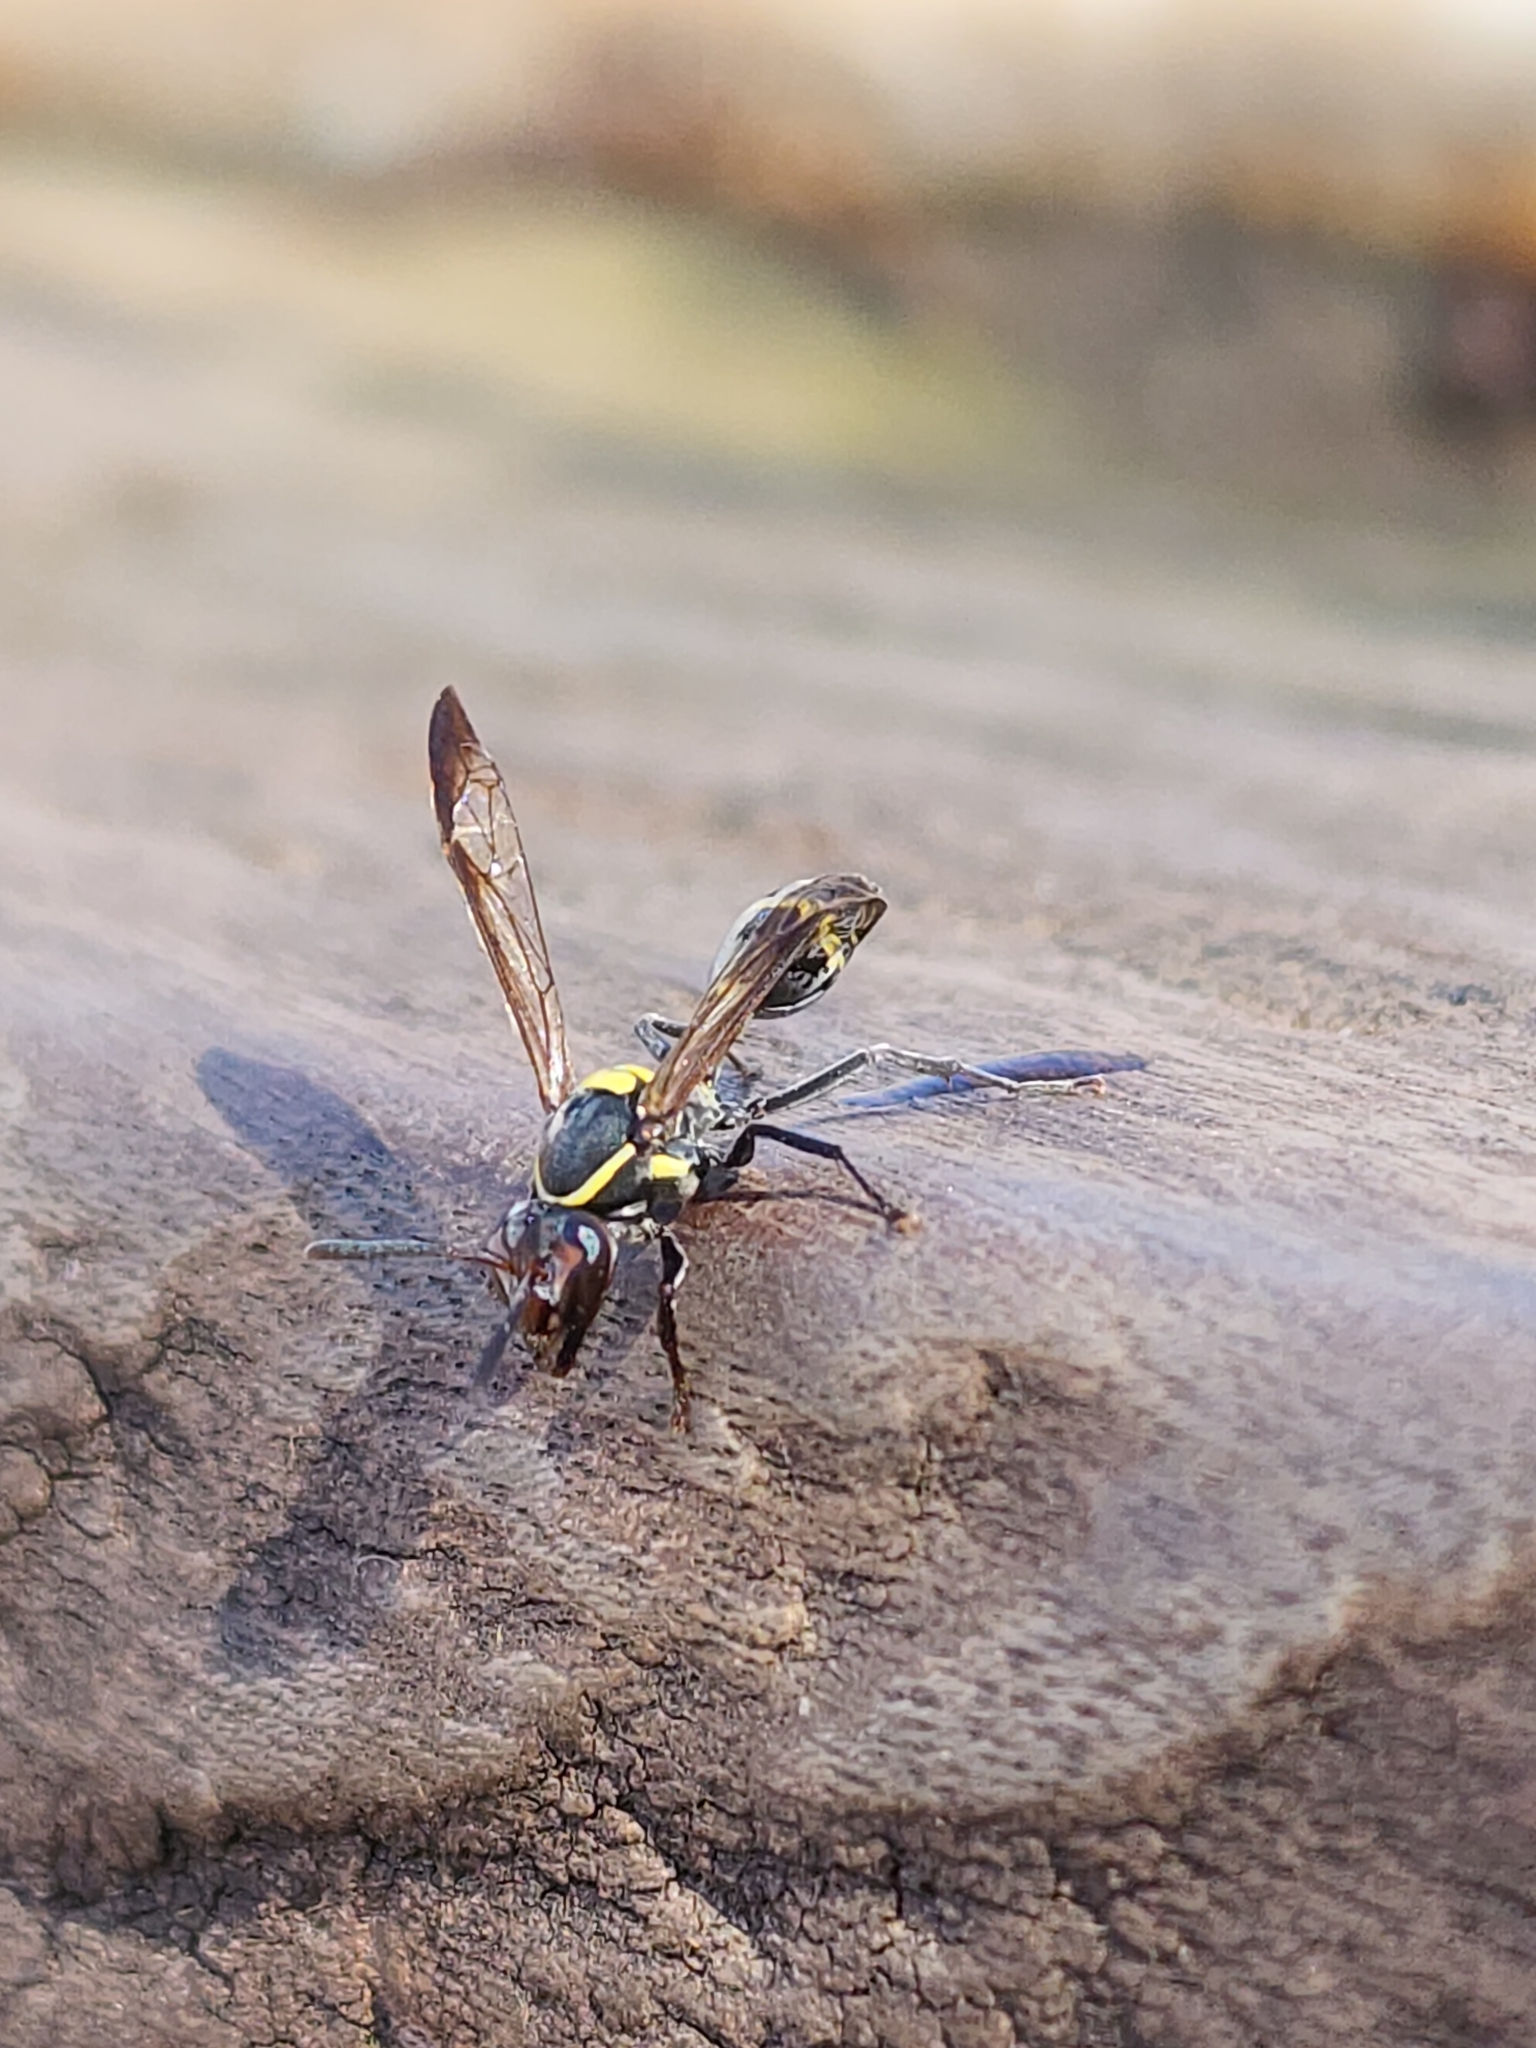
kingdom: Animalia
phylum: Arthropoda
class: Insecta
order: Hymenoptera
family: Eumenidae
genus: Polybia
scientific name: Polybia ruficeps
